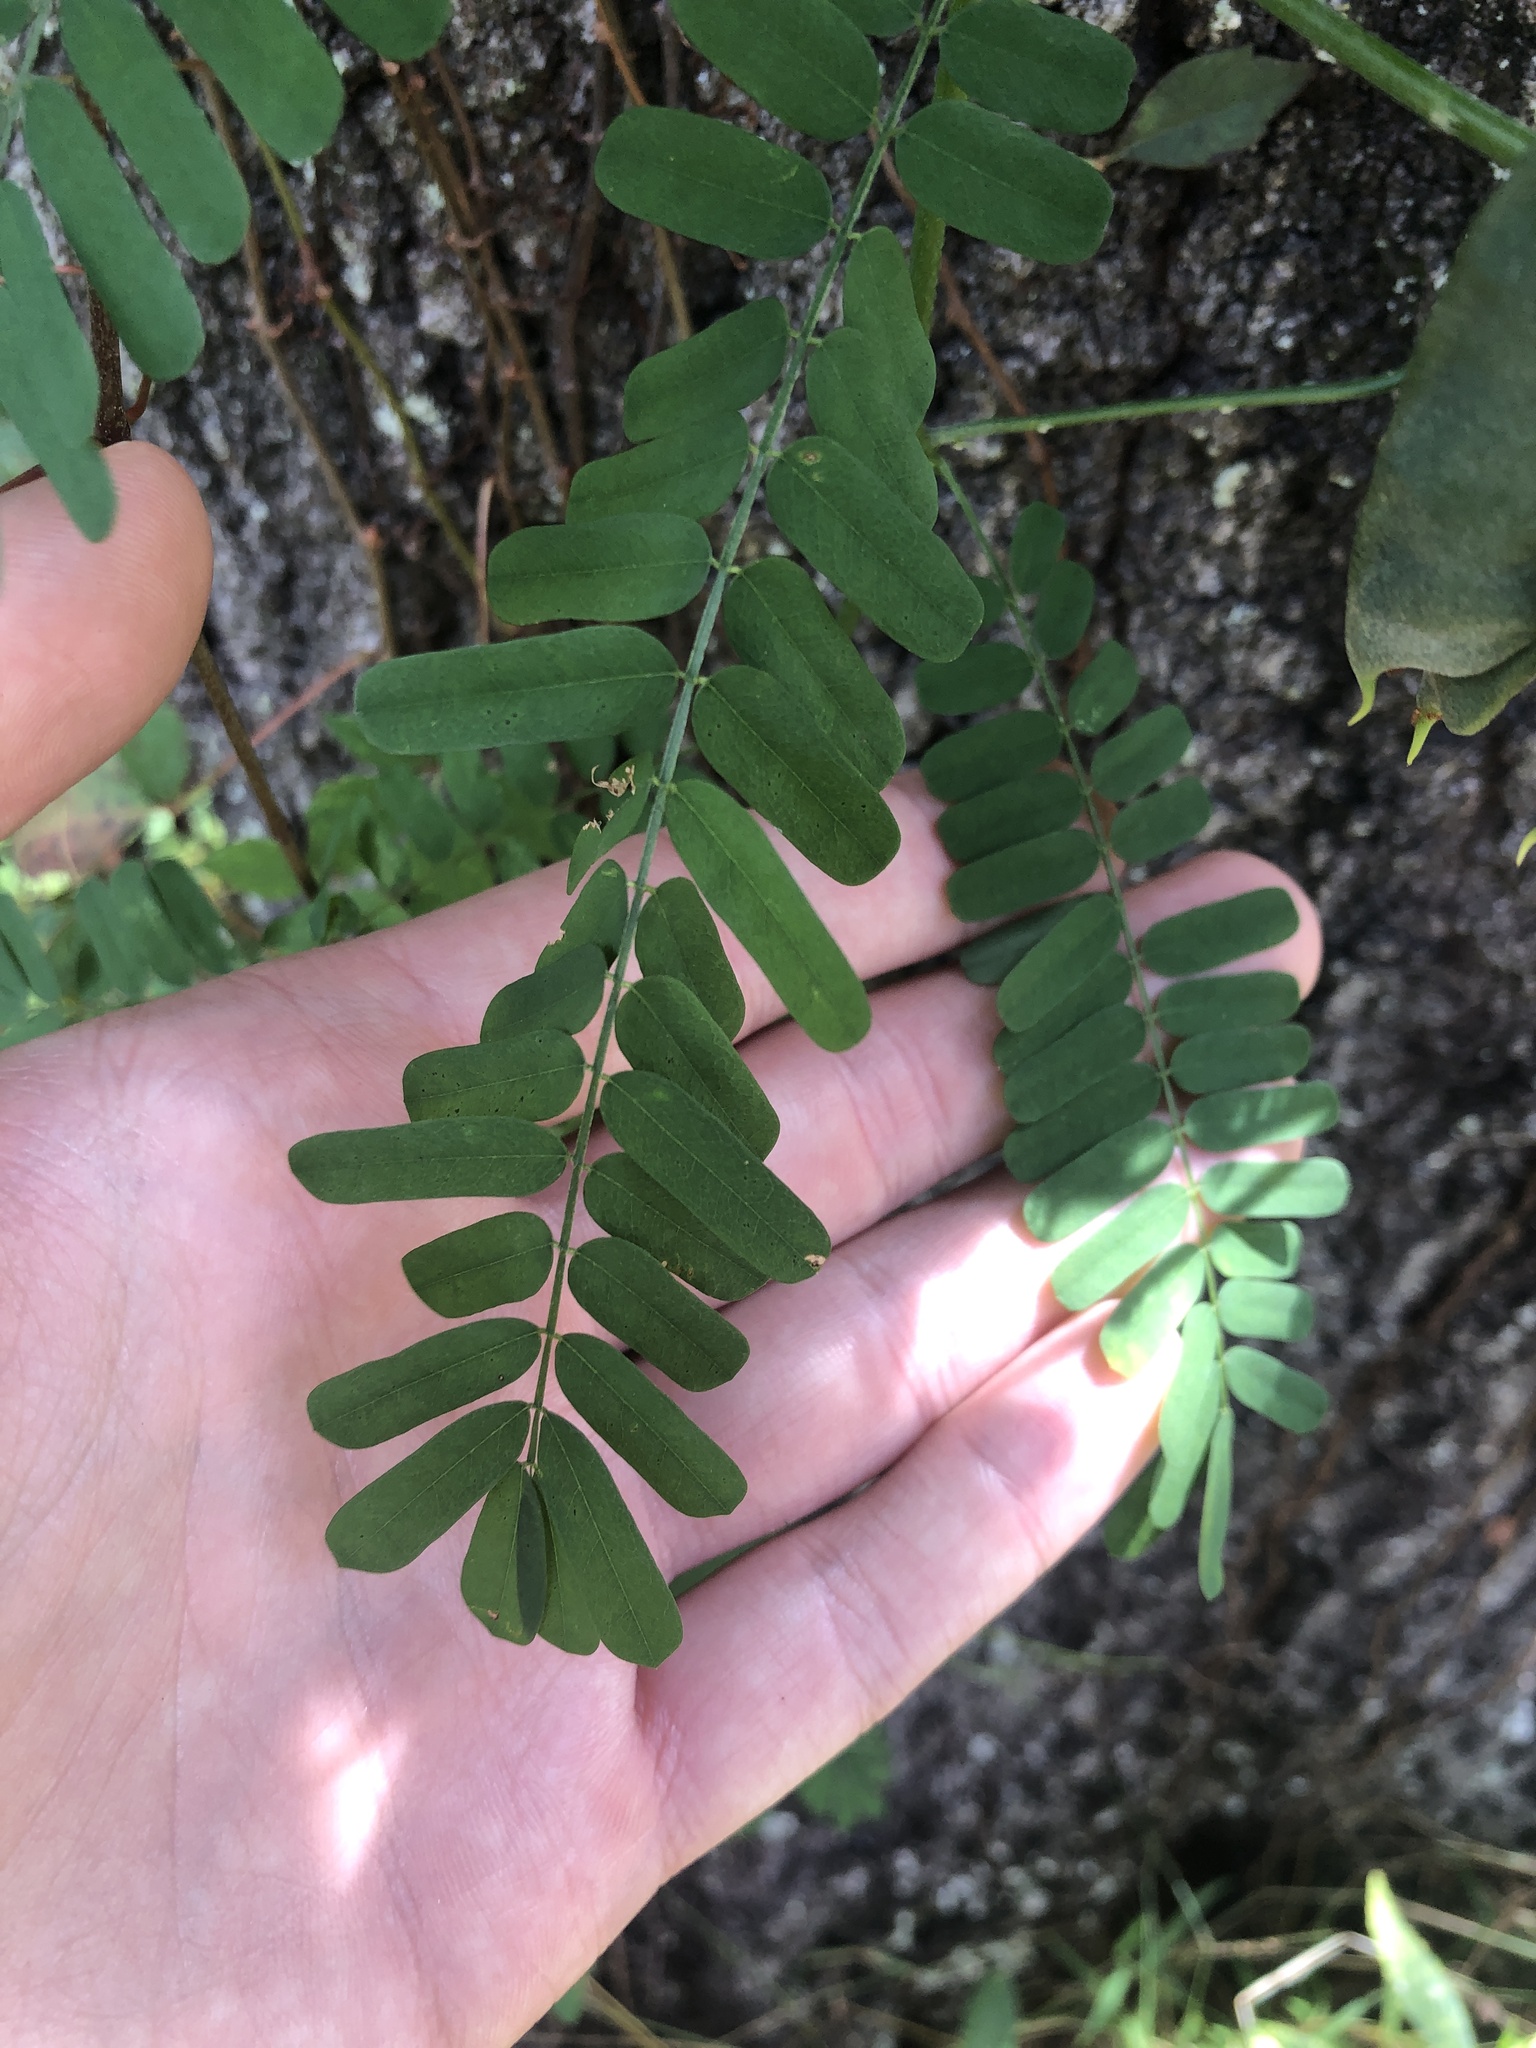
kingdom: Plantae
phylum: Tracheophyta
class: Magnoliopsida
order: Fabales
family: Fabaceae
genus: Abrus
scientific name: Abrus precatorius
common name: Rosarypea
